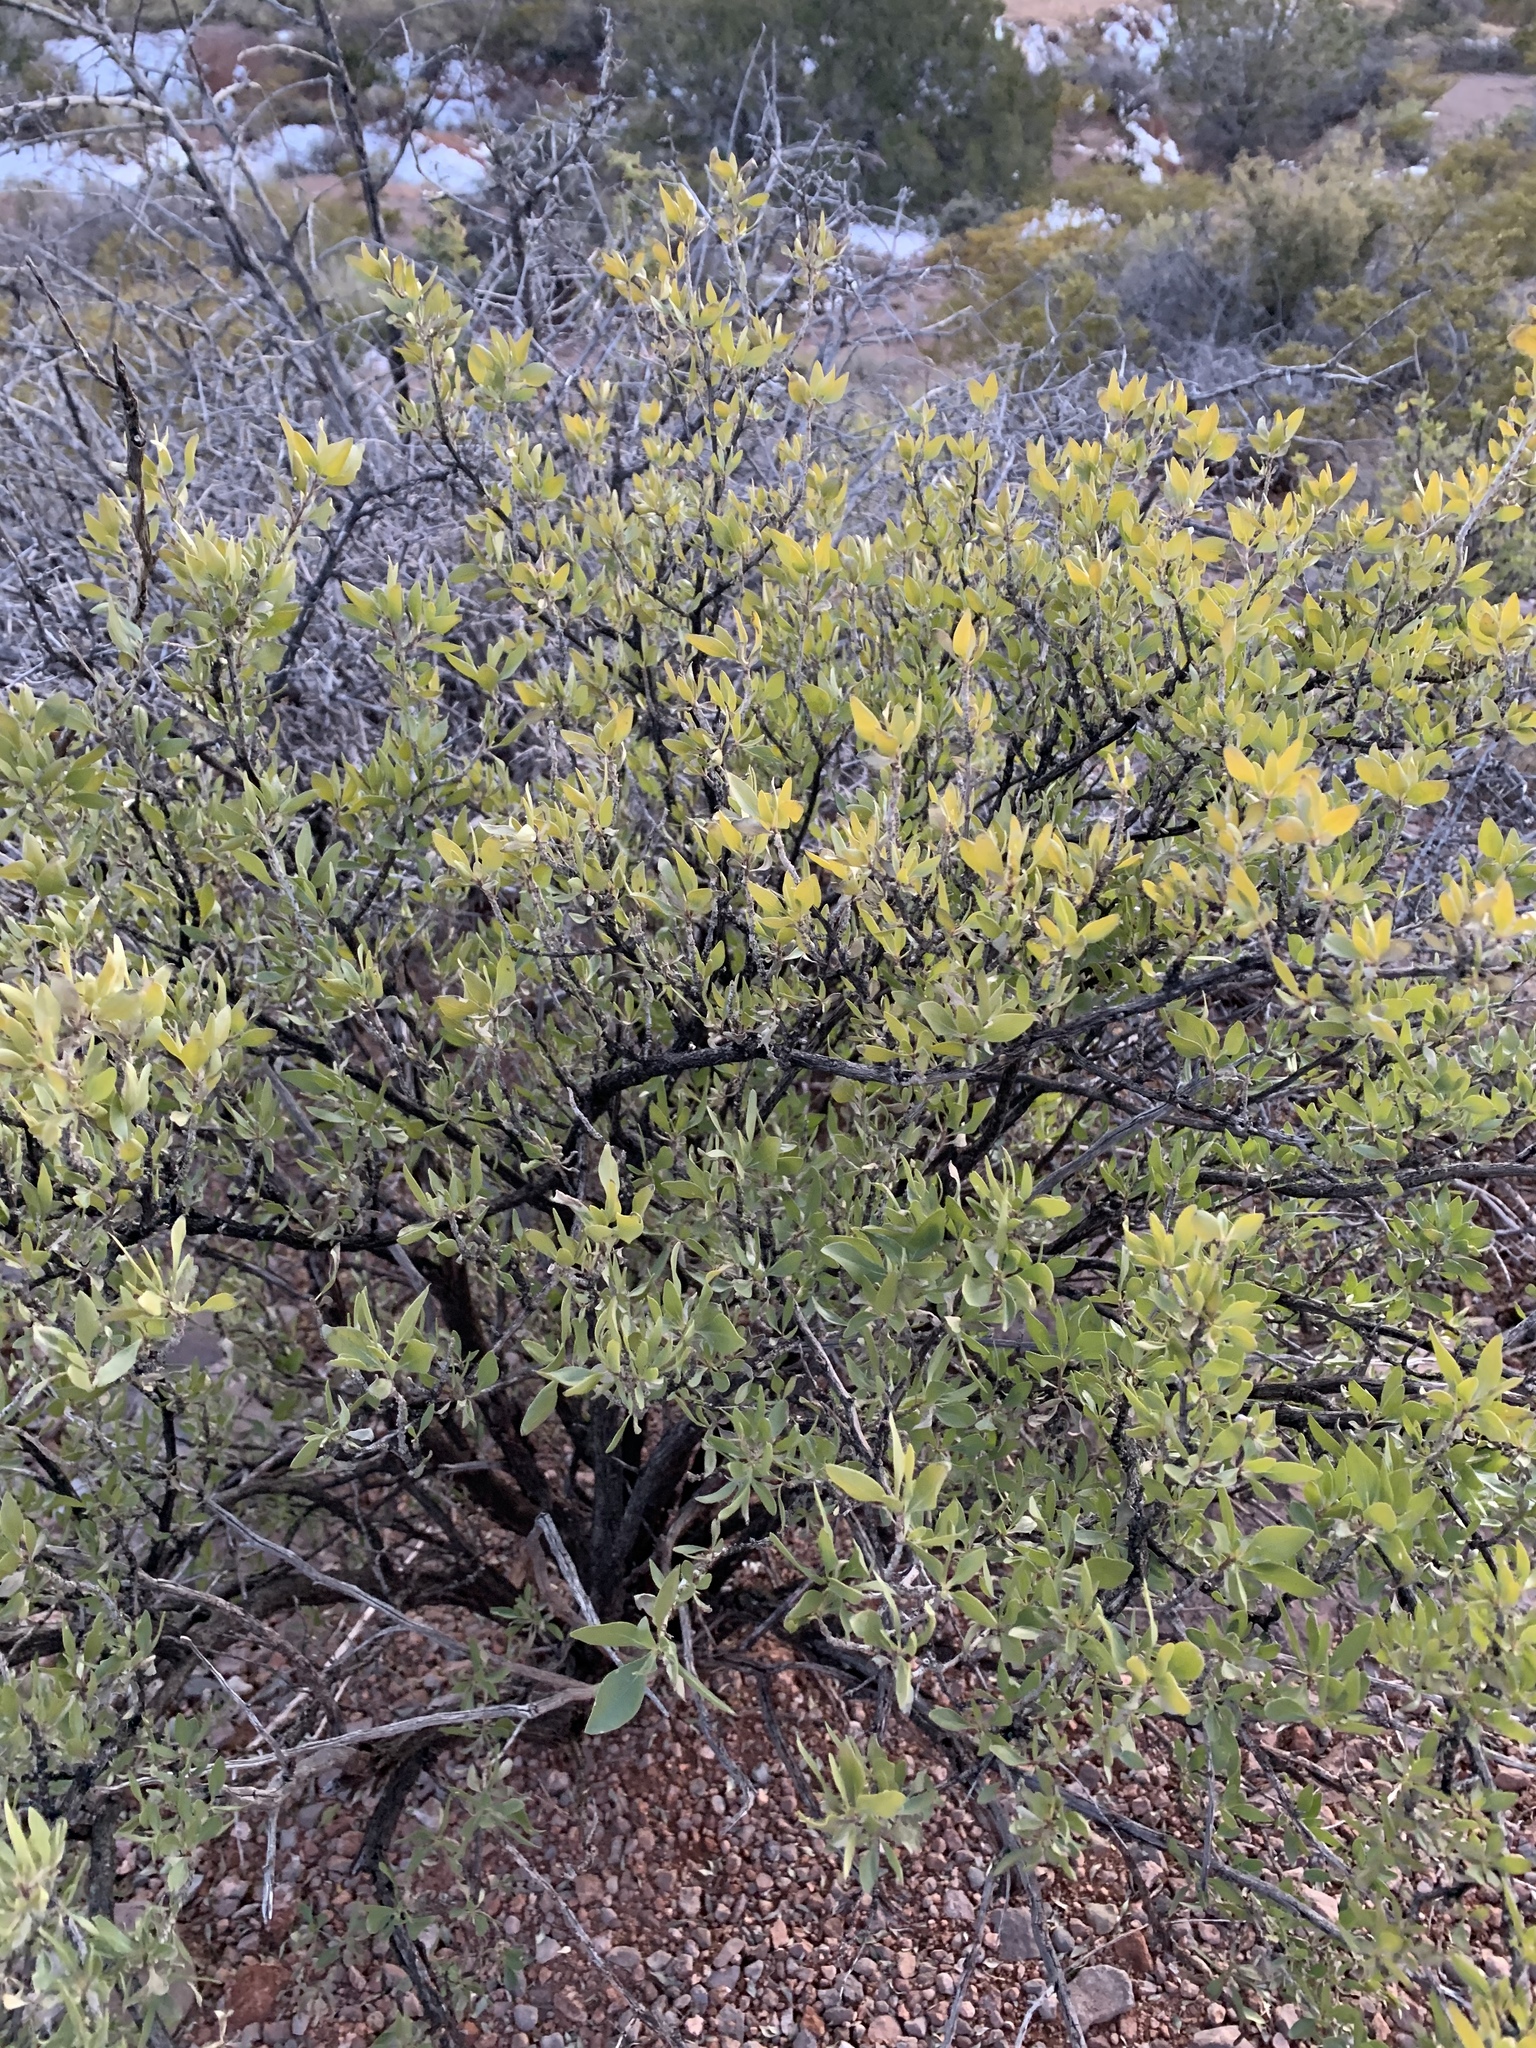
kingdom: Plantae
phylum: Tracheophyta
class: Magnoliopsida
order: Asterales
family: Asteraceae
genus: Flourensia
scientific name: Flourensia cernua
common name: Varnishbush
